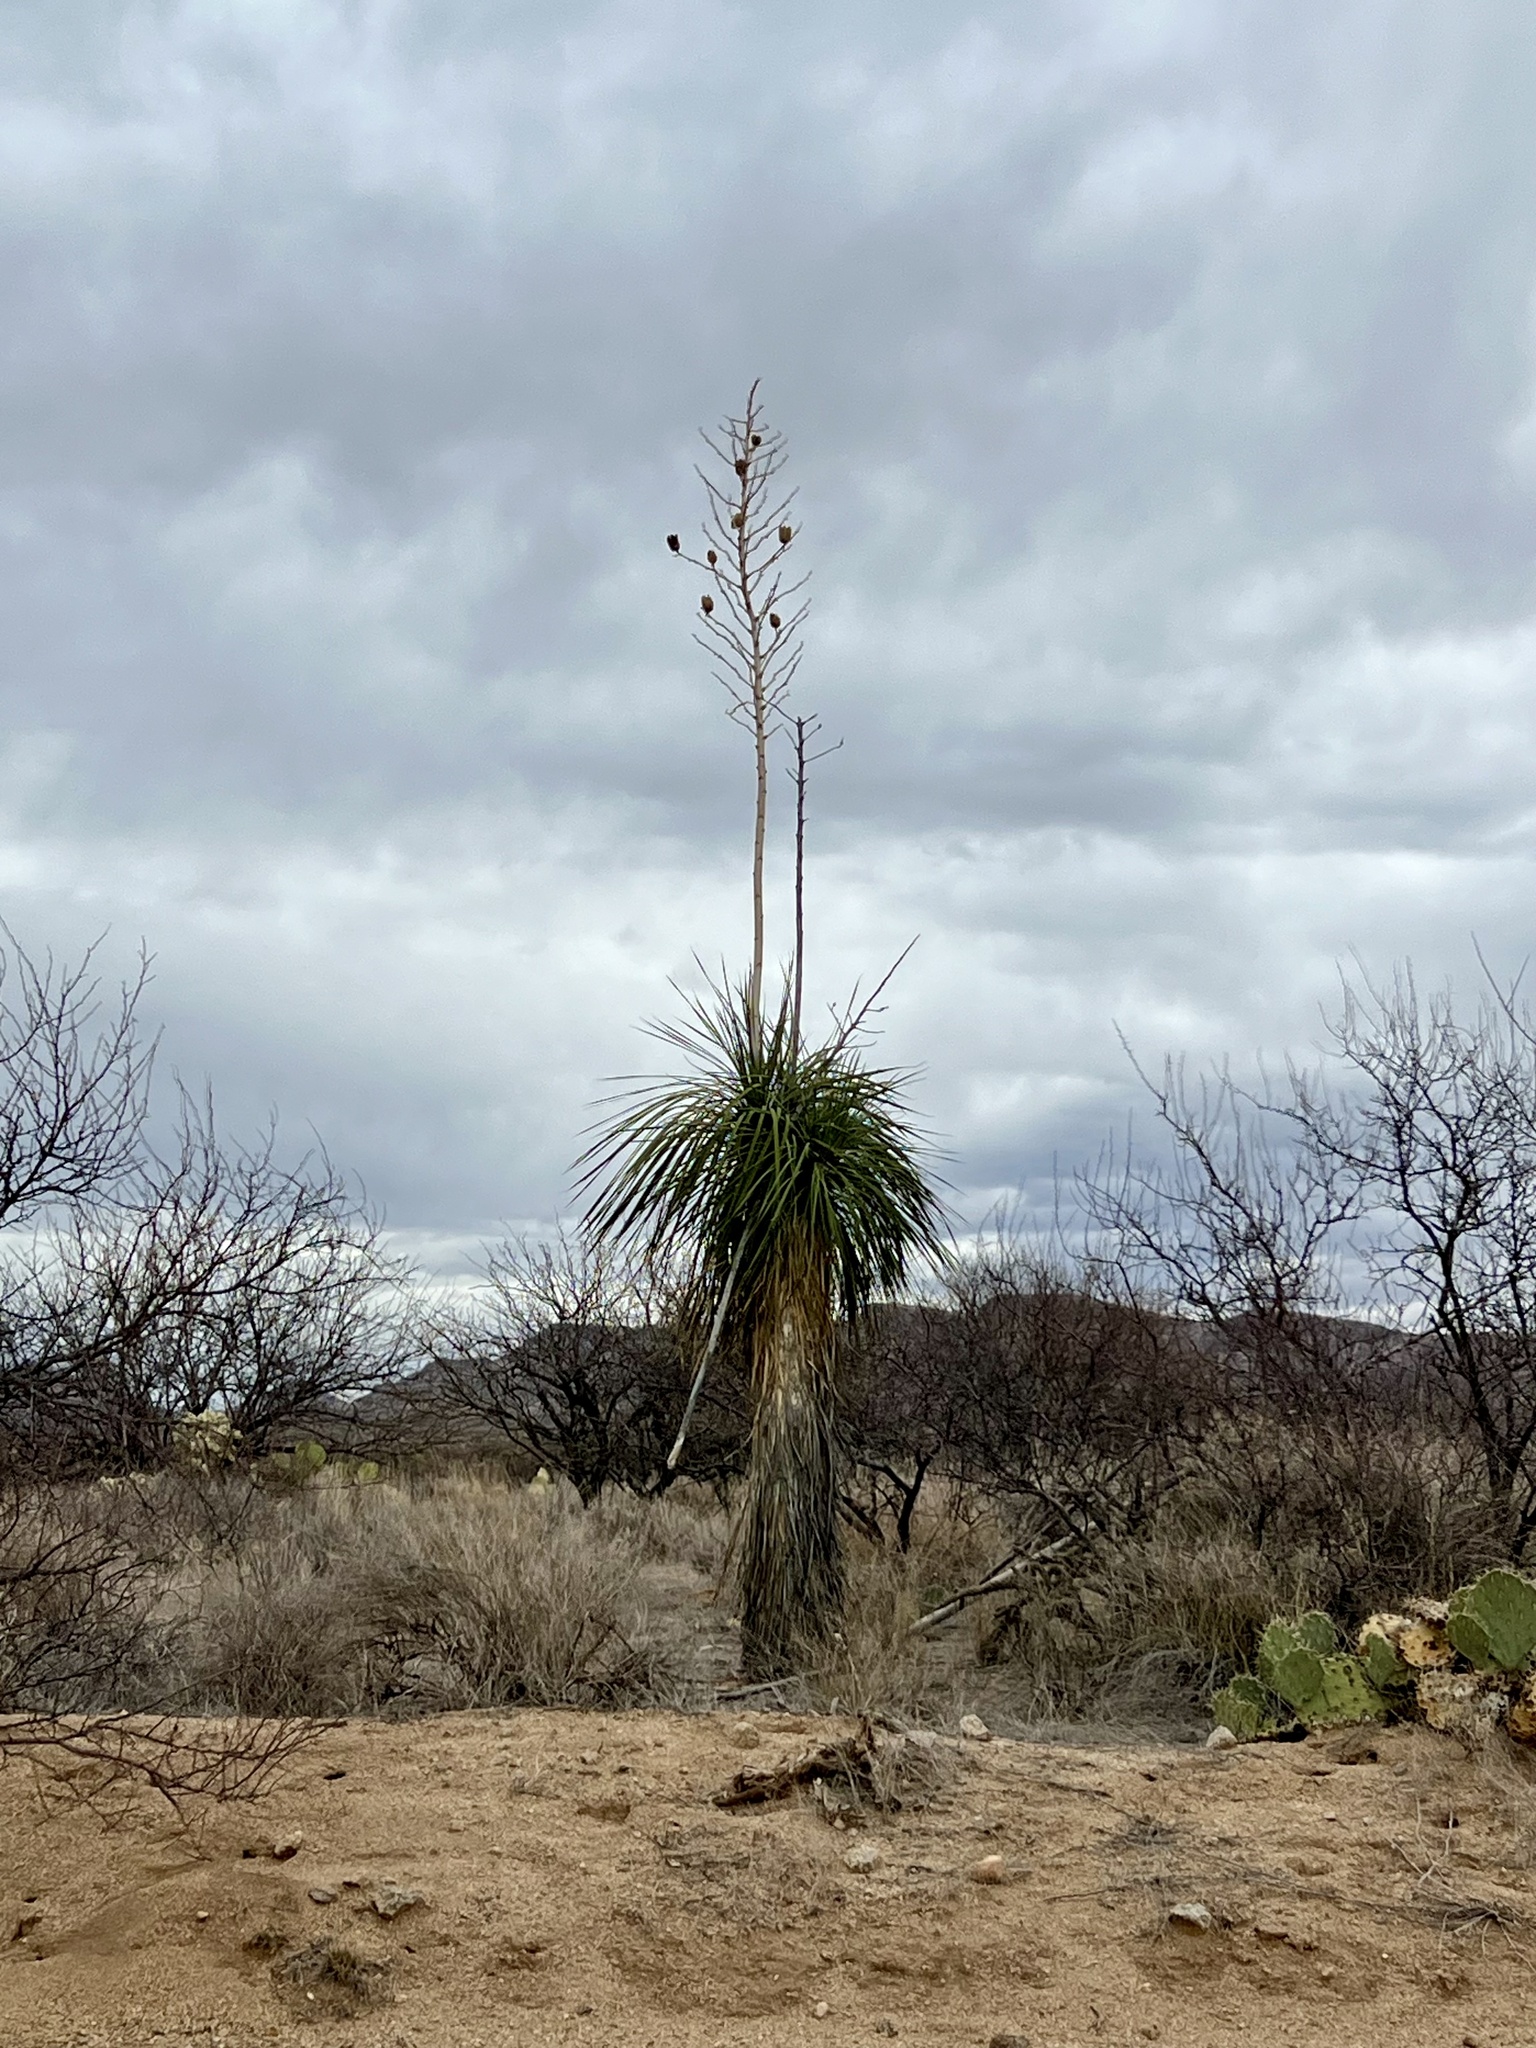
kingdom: Plantae
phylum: Tracheophyta
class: Liliopsida
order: Asparagales
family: Asparagaceae
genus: Yucca
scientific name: Yucca elata
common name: Palmella
